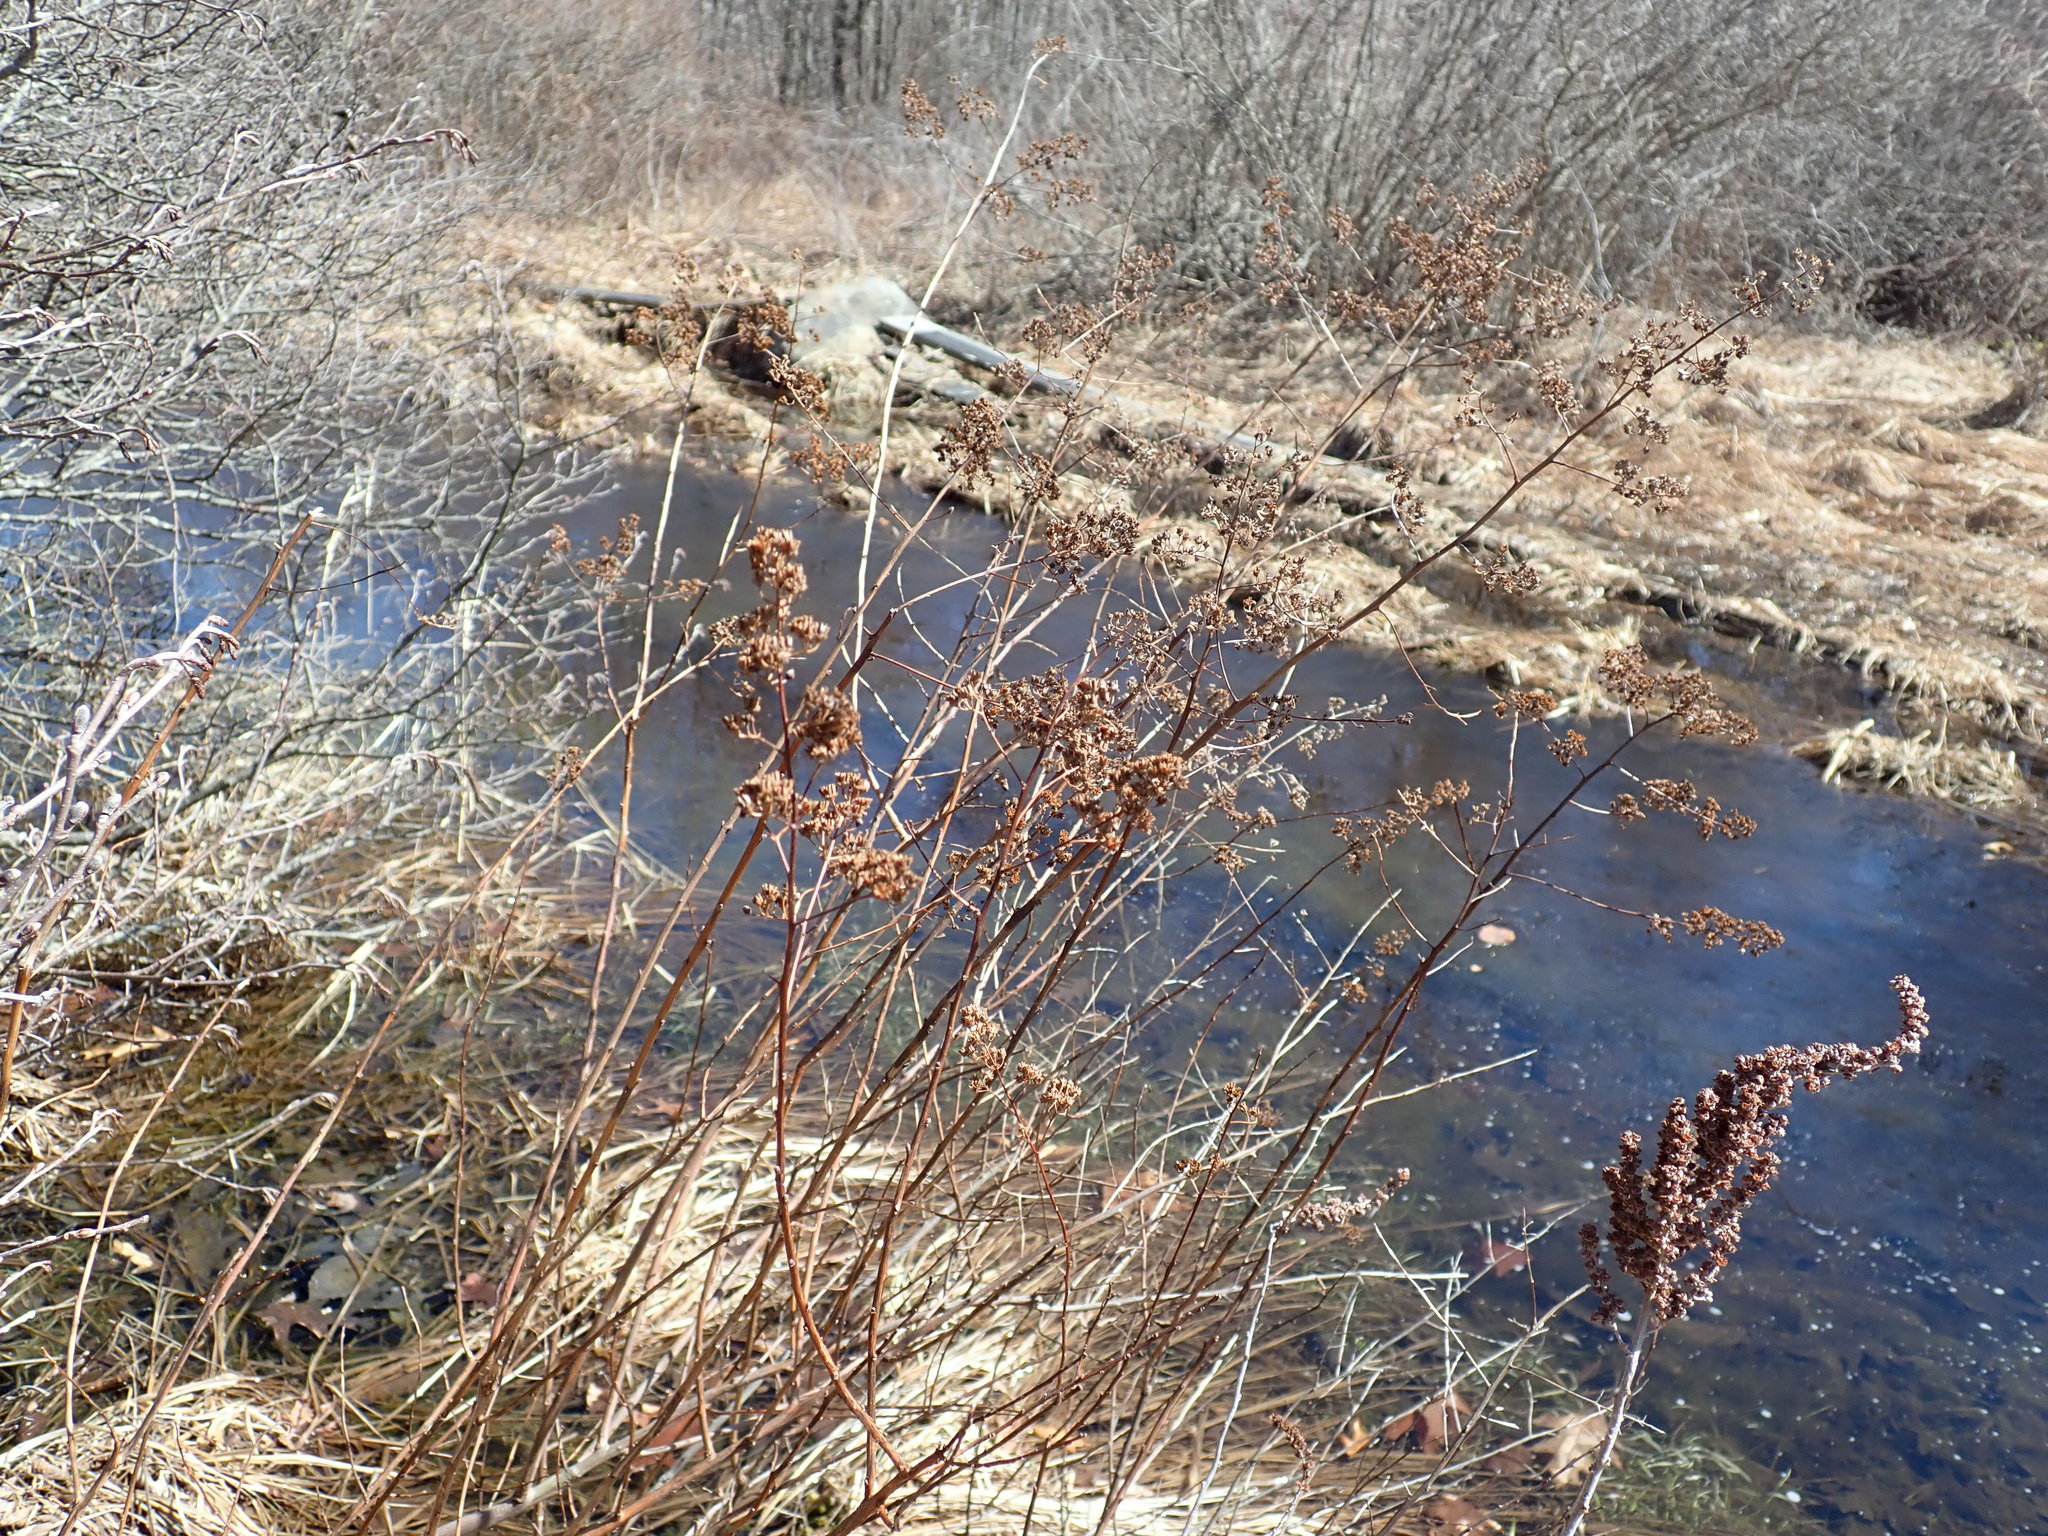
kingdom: Plantae
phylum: Tracheophyta
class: Magnoliopsida
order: Rosales
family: Rosaceae
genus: Spiraea
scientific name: Spiraea alba
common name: Pale bridewort
